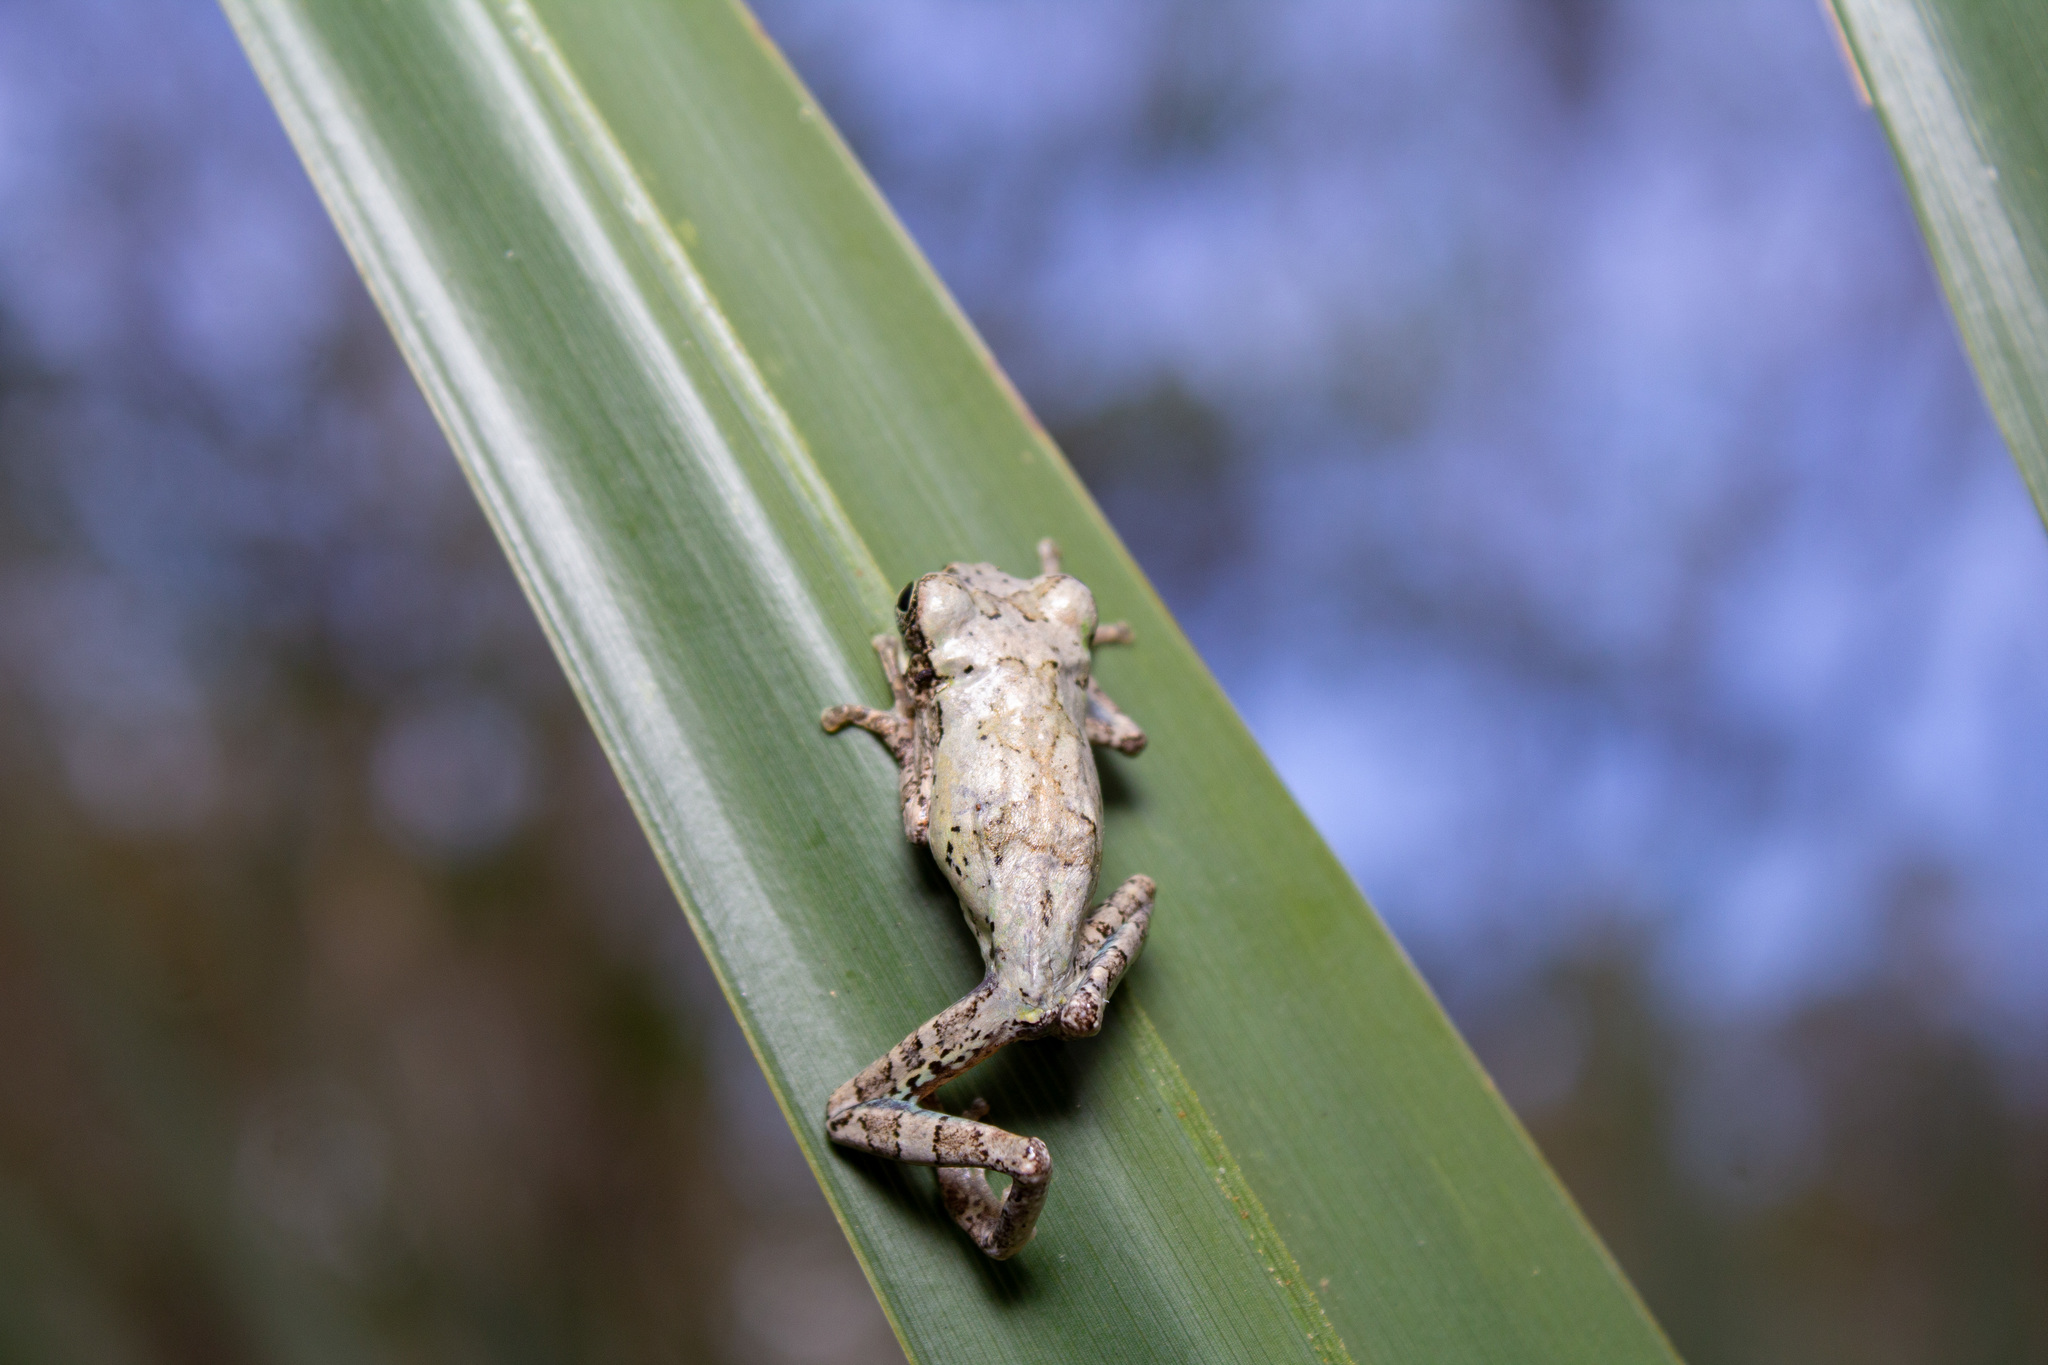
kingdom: Animalia
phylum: Chordata
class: Amphibia
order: Anura
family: Hylidae
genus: Dryophytes
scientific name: Dryophytes avivoca
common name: Bird-voiced treefrog
